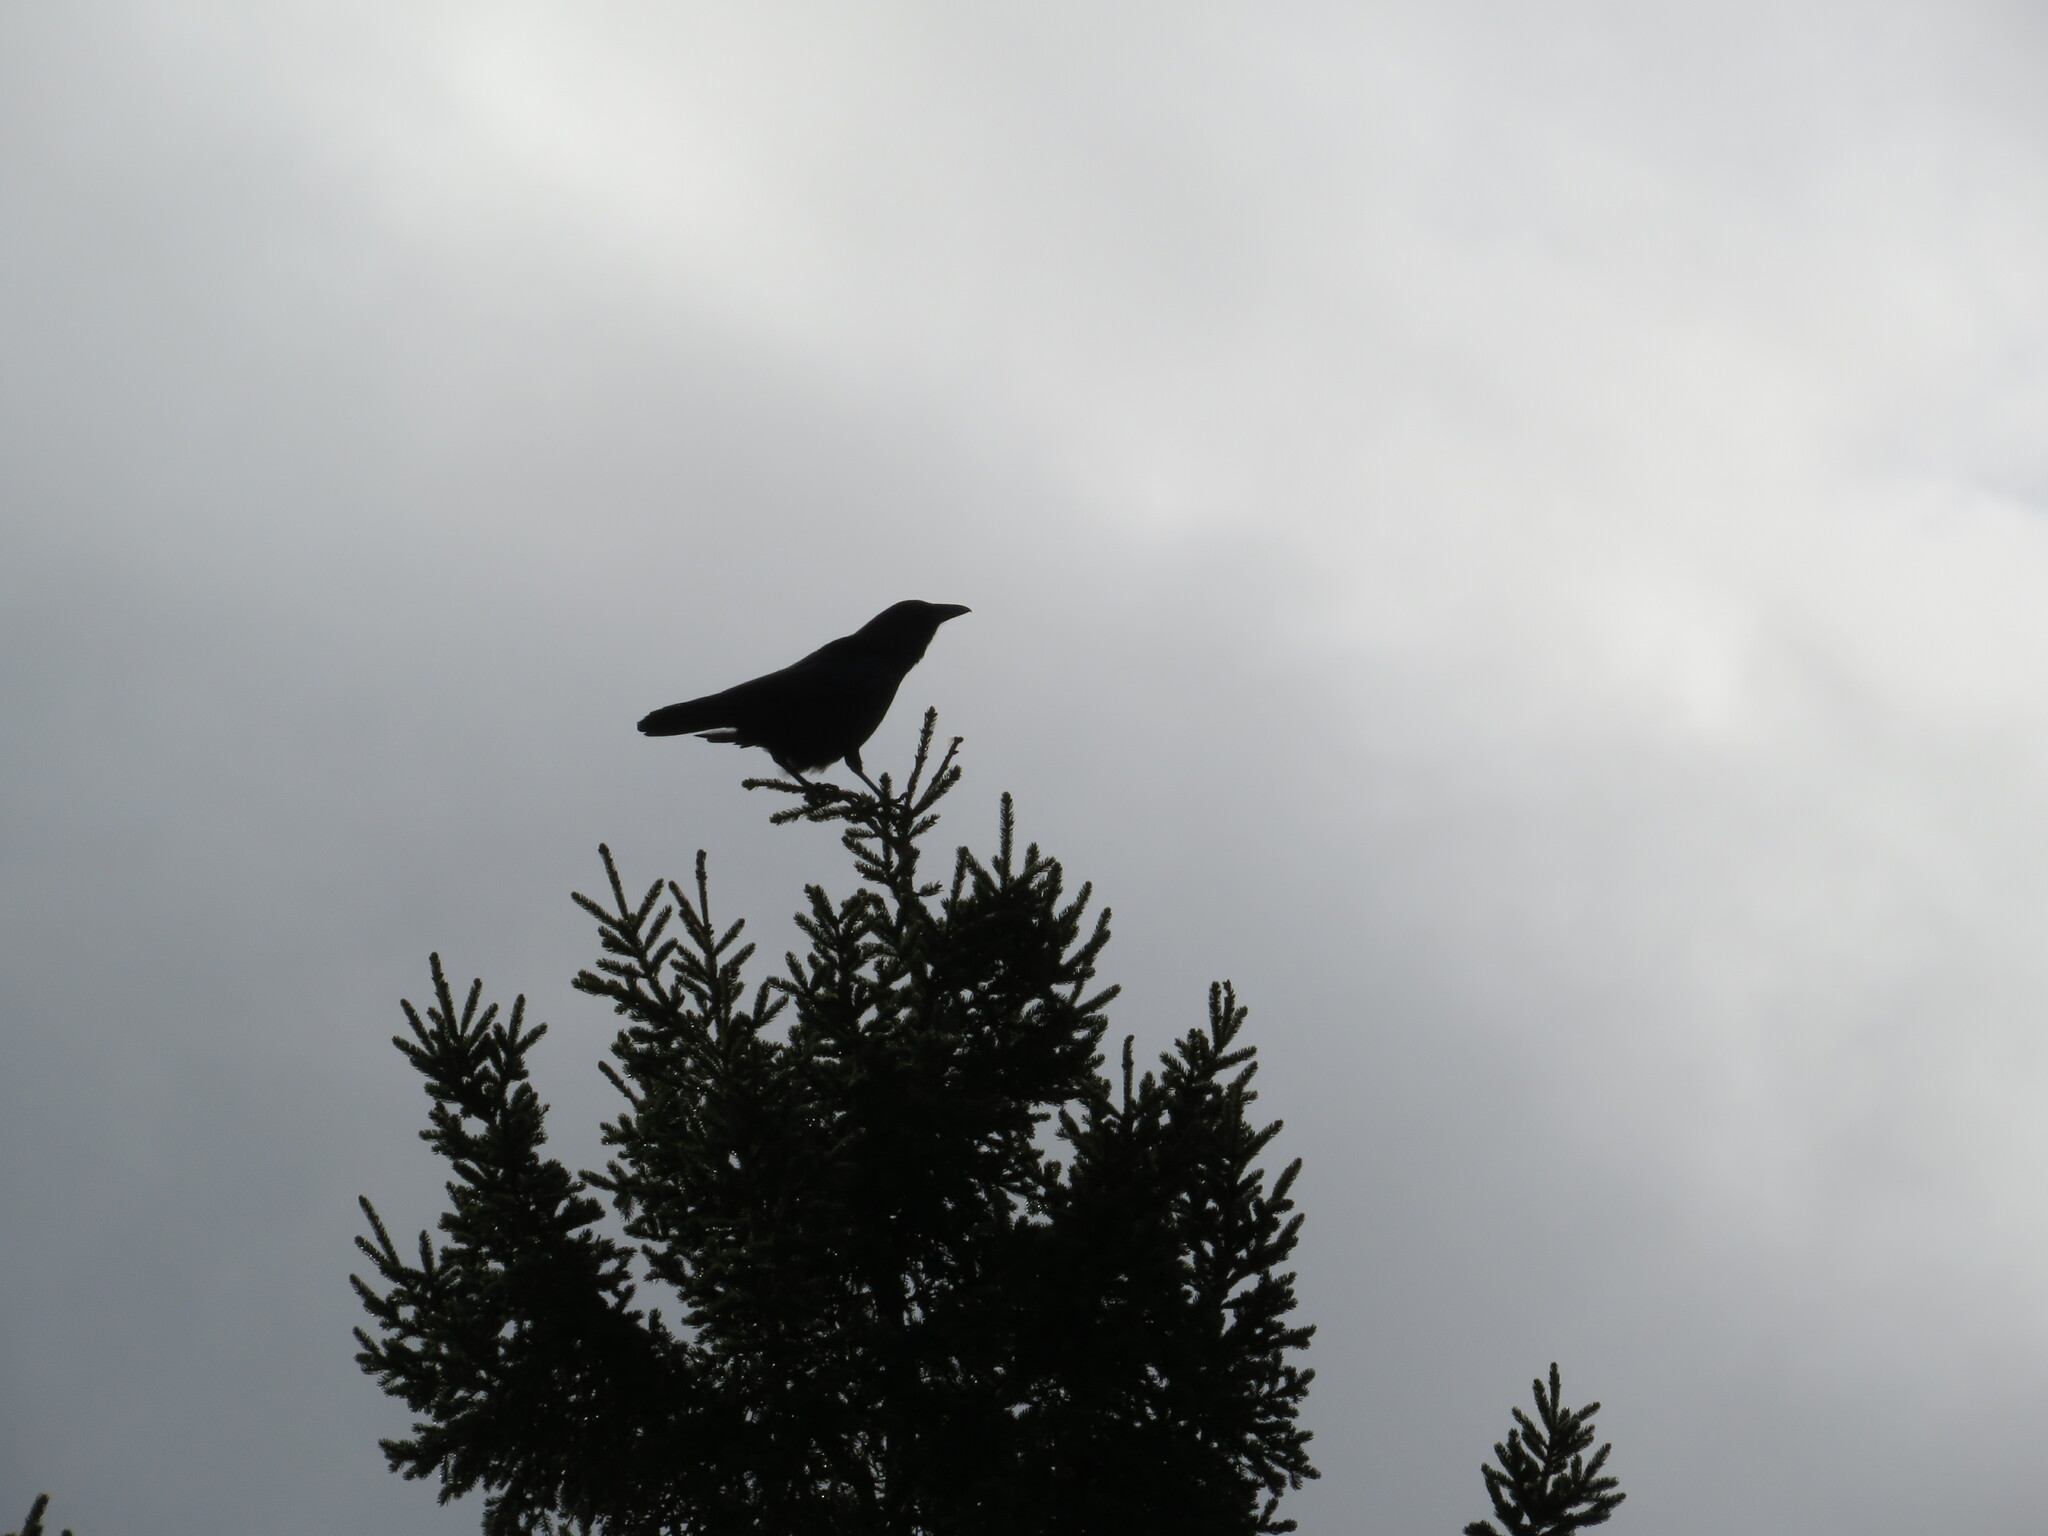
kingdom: Animalia
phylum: Chordata
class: Aves
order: Passeriformes
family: Corvidae
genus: Corvus
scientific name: Corvus brachyrhynchos
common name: American crow
